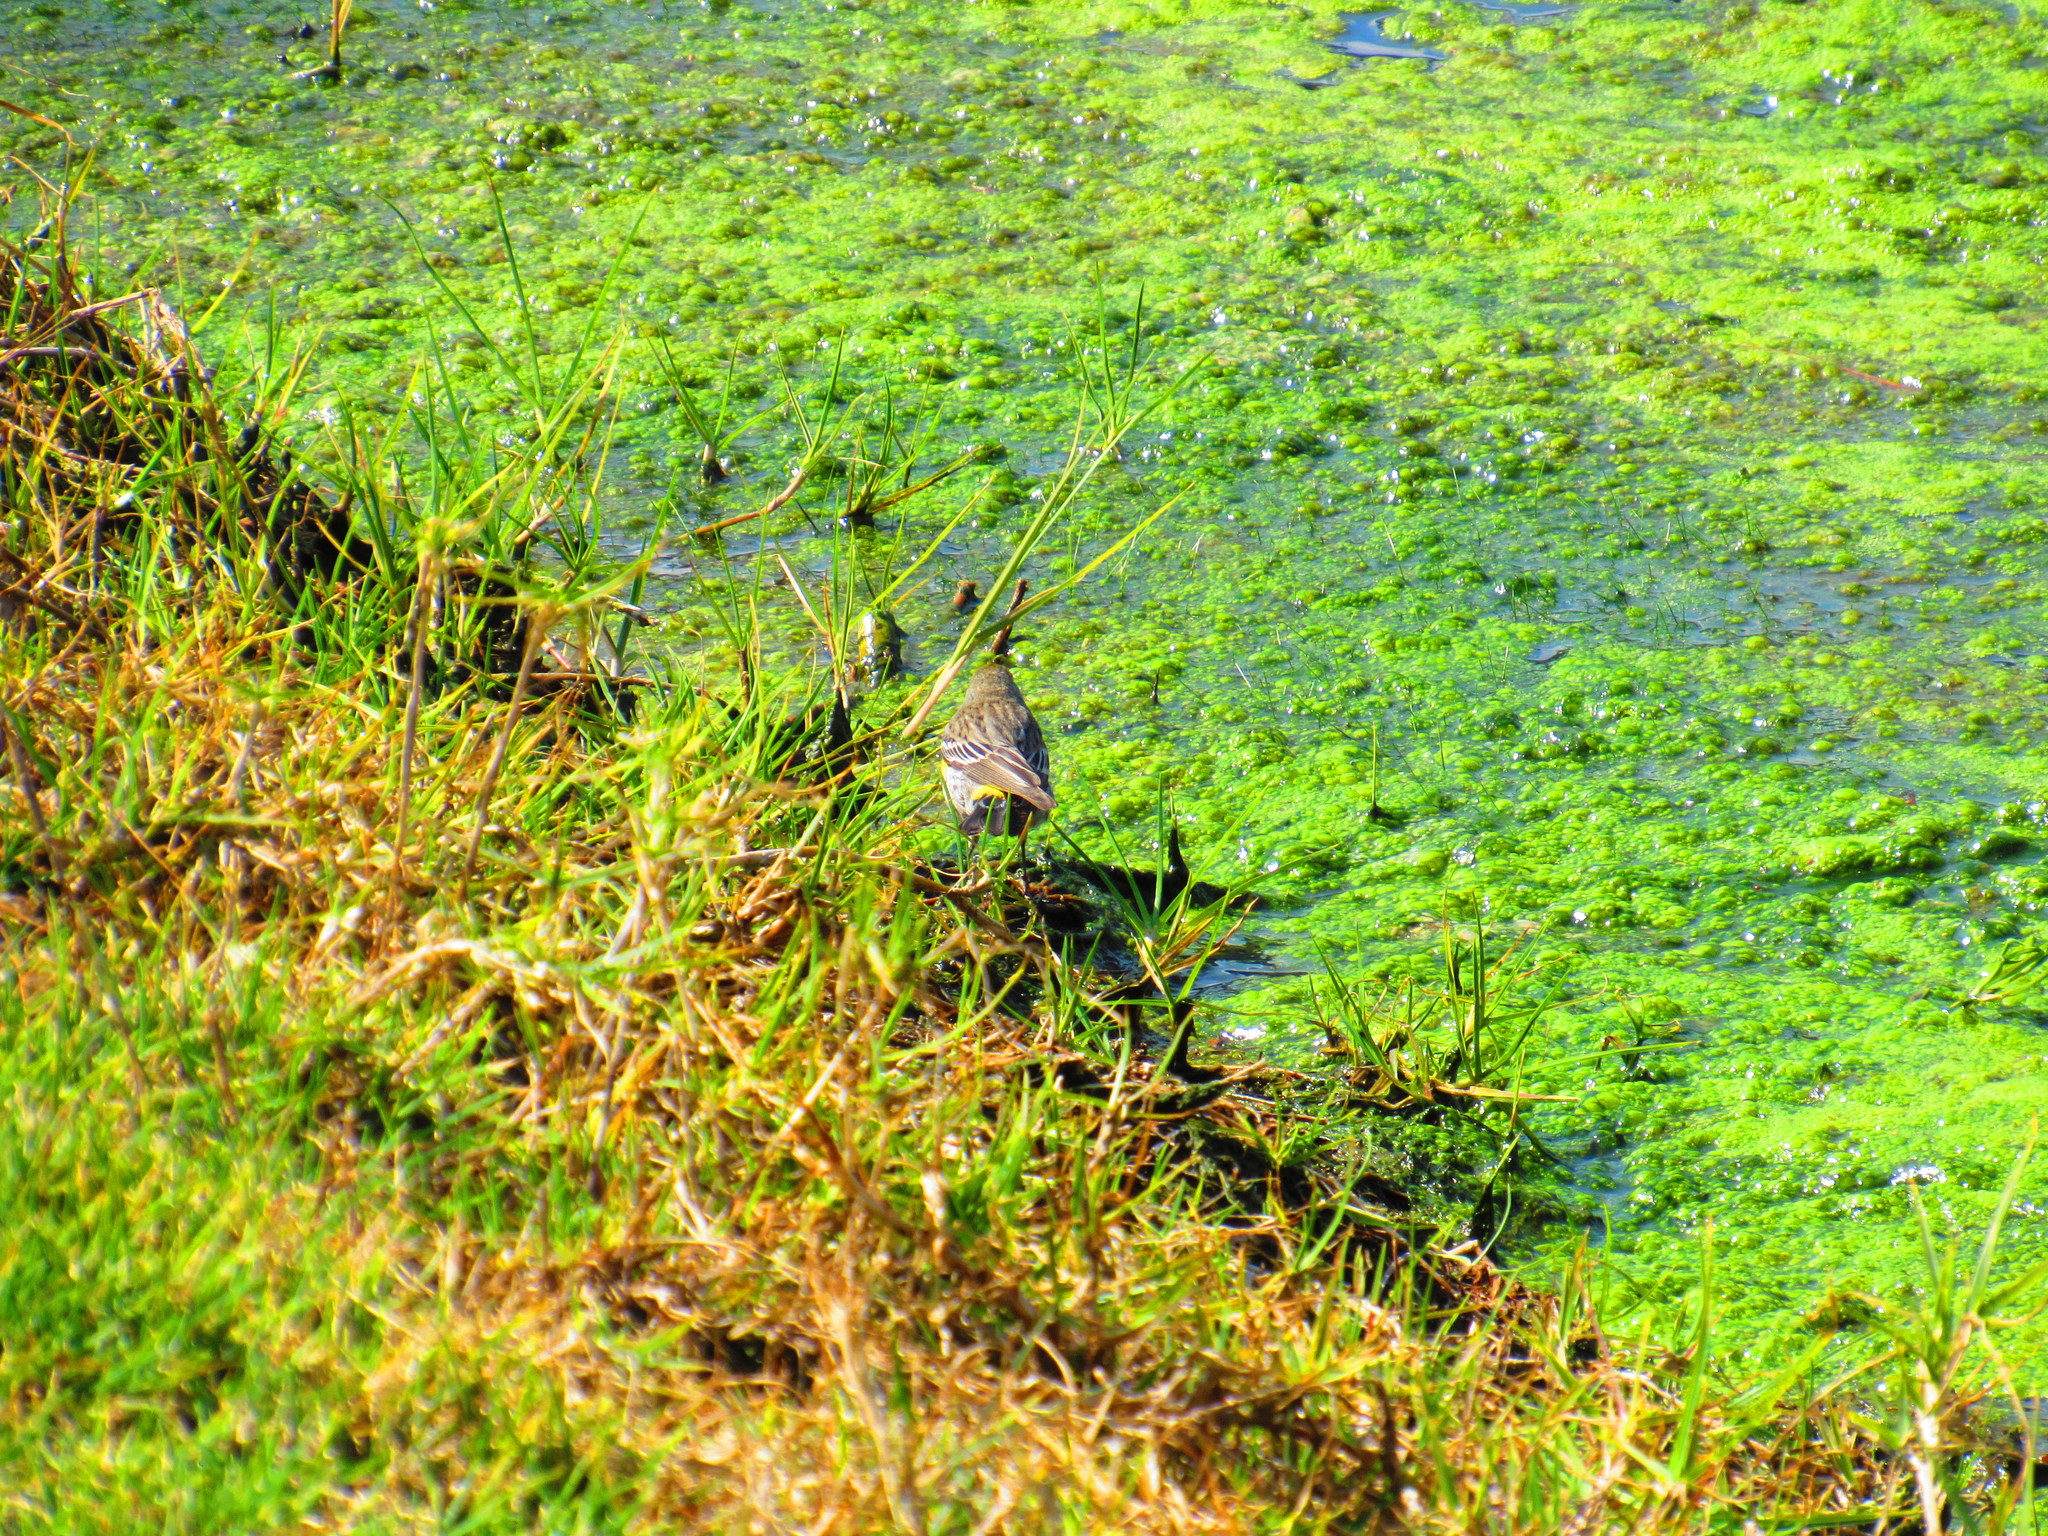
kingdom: Animalia
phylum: Chordata
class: Aves
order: Passeriformes
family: Parulidae
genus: Setophaga
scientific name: Setophaga coronata
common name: Myrtle warbler
